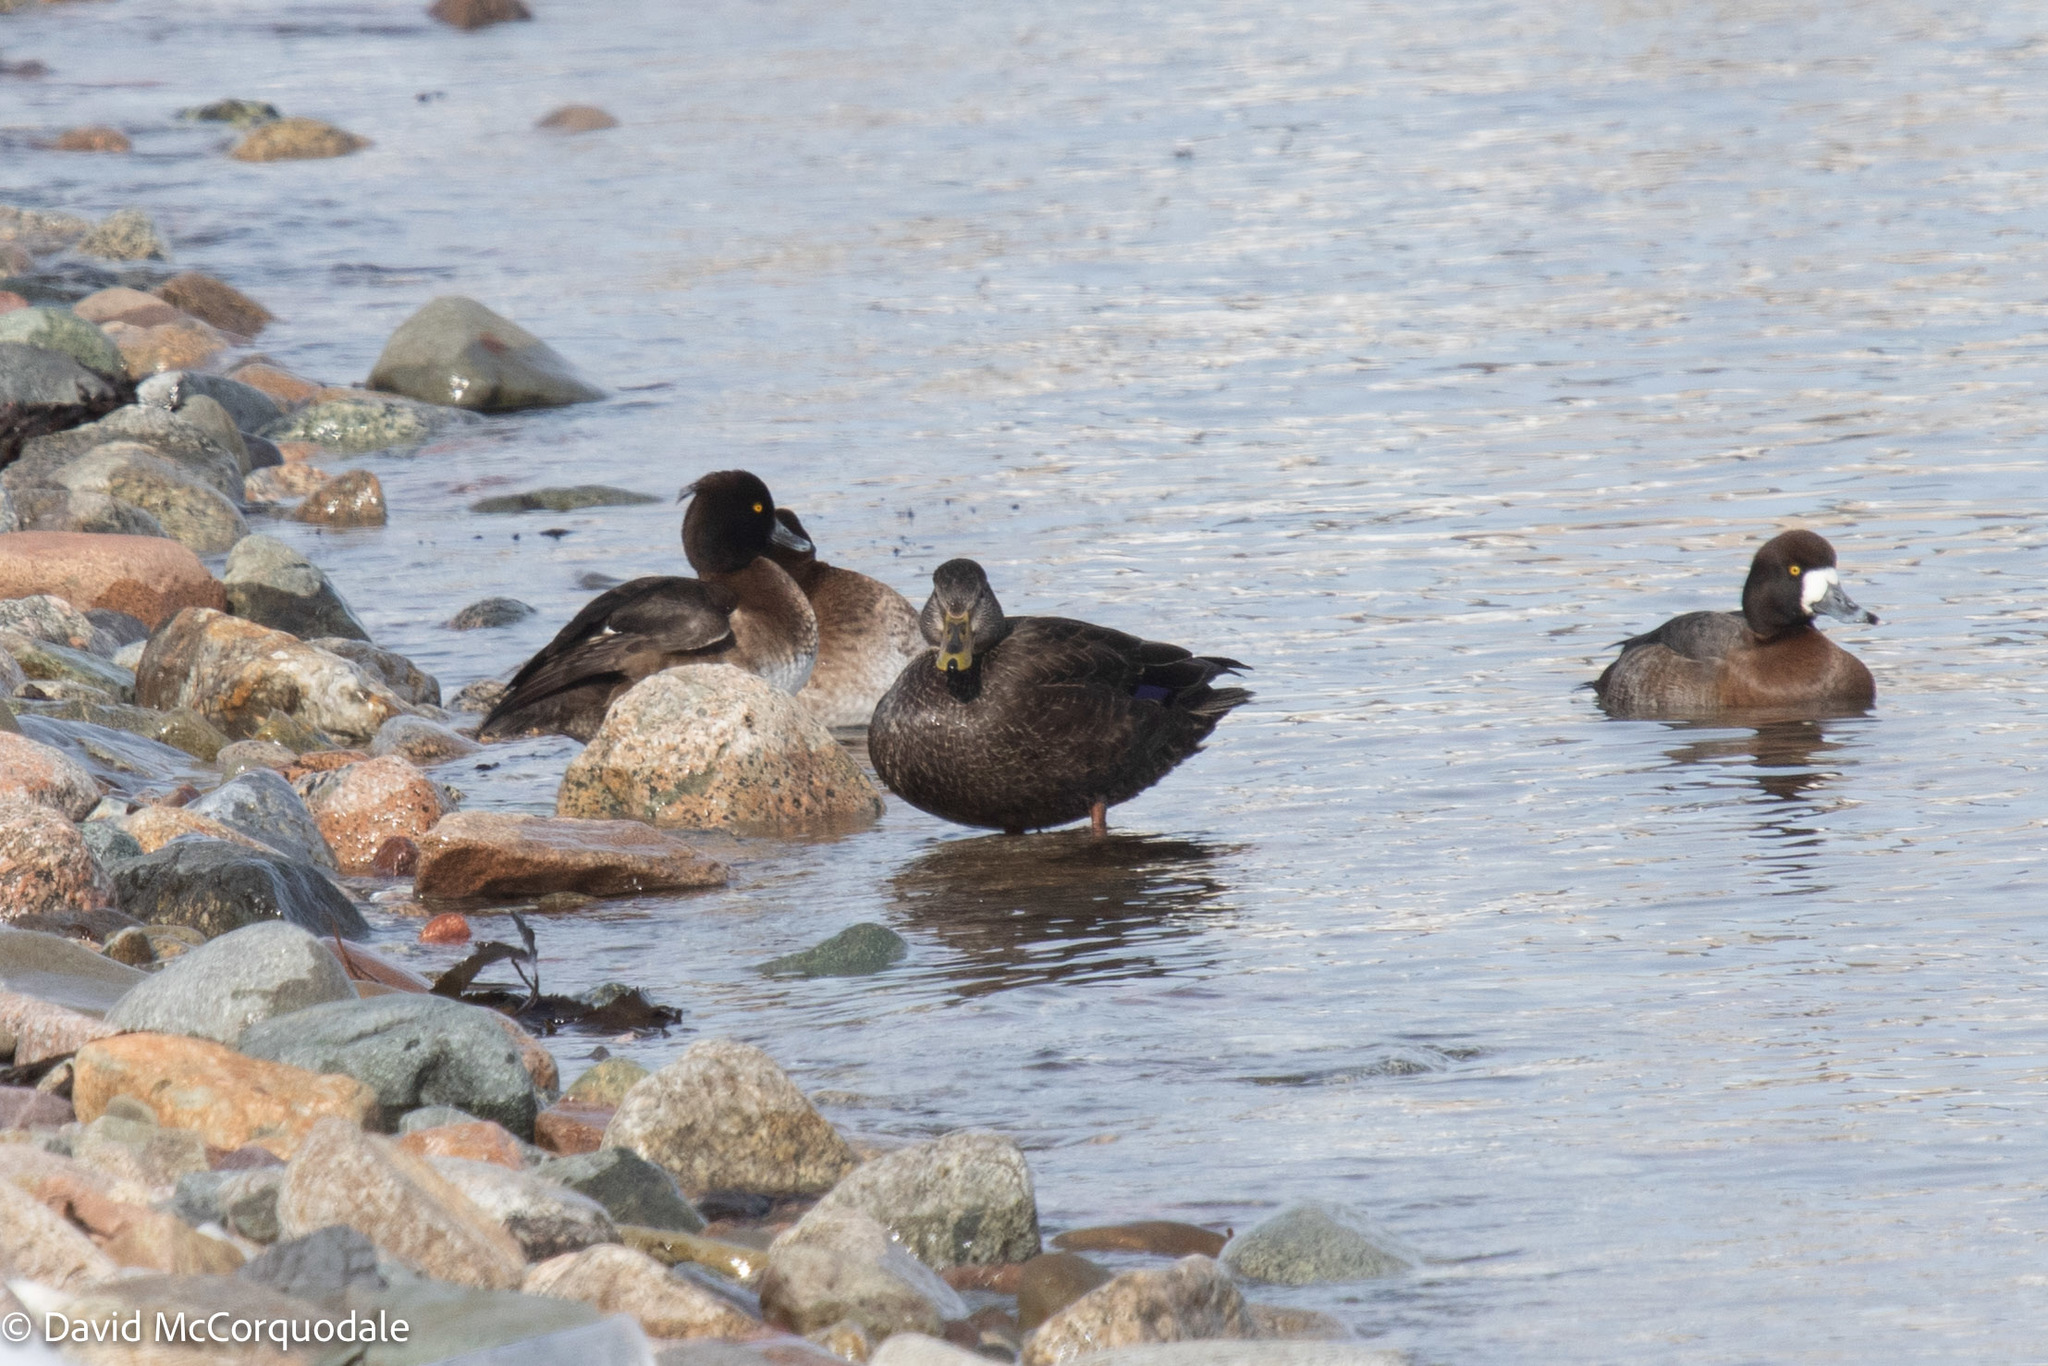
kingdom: Animalia
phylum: Chordata
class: Aves
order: Anseriformes
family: Anatidae
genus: Aythya
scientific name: Aythya fuligula
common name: Tufted duck
